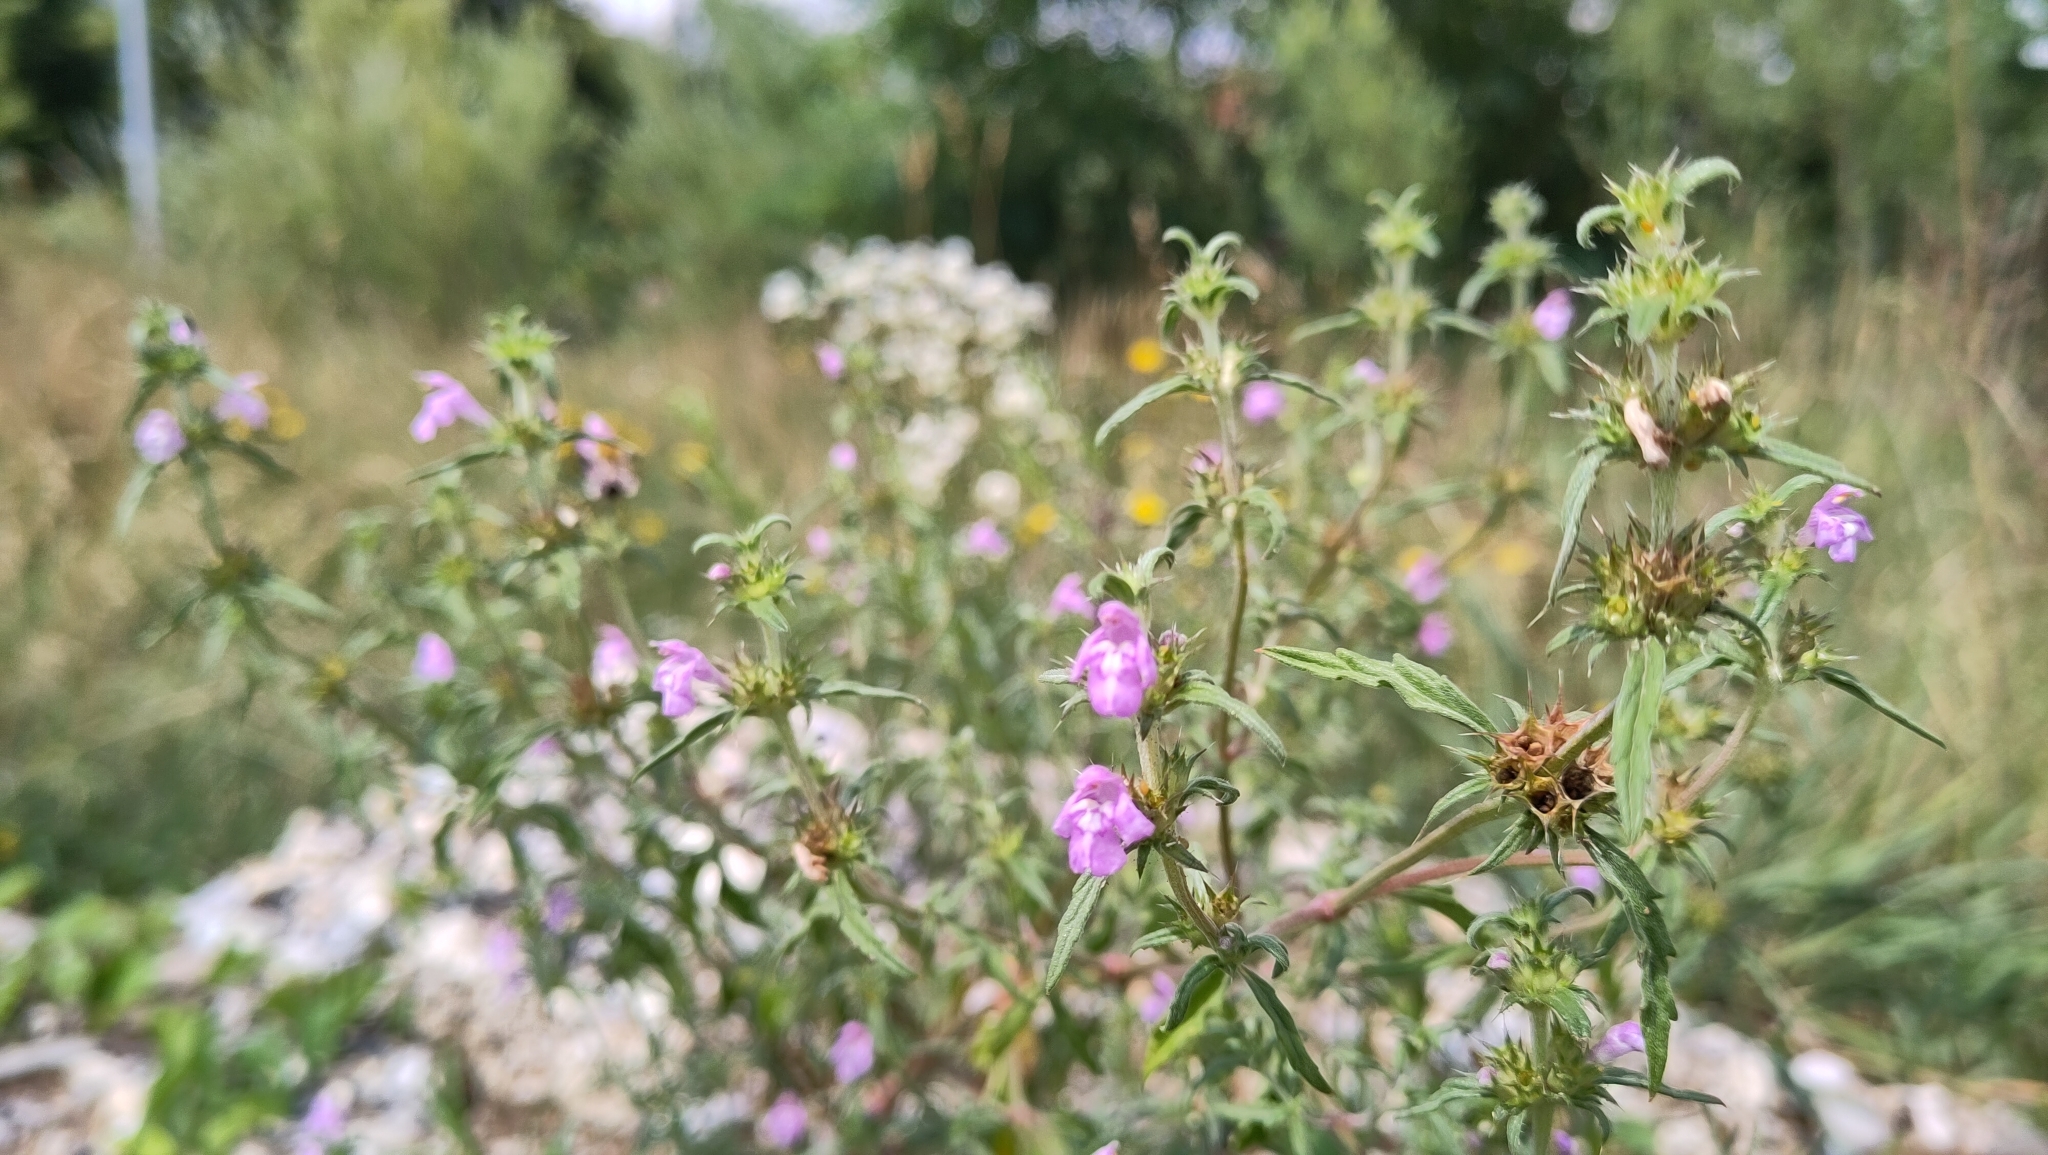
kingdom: Plantae
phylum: Tracheophyta
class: Magnoliopsida
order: Lamiales
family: Lamiaceae
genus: Galeopsis
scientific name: Galeopsis angustifolia
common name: Red hemp-nettle
